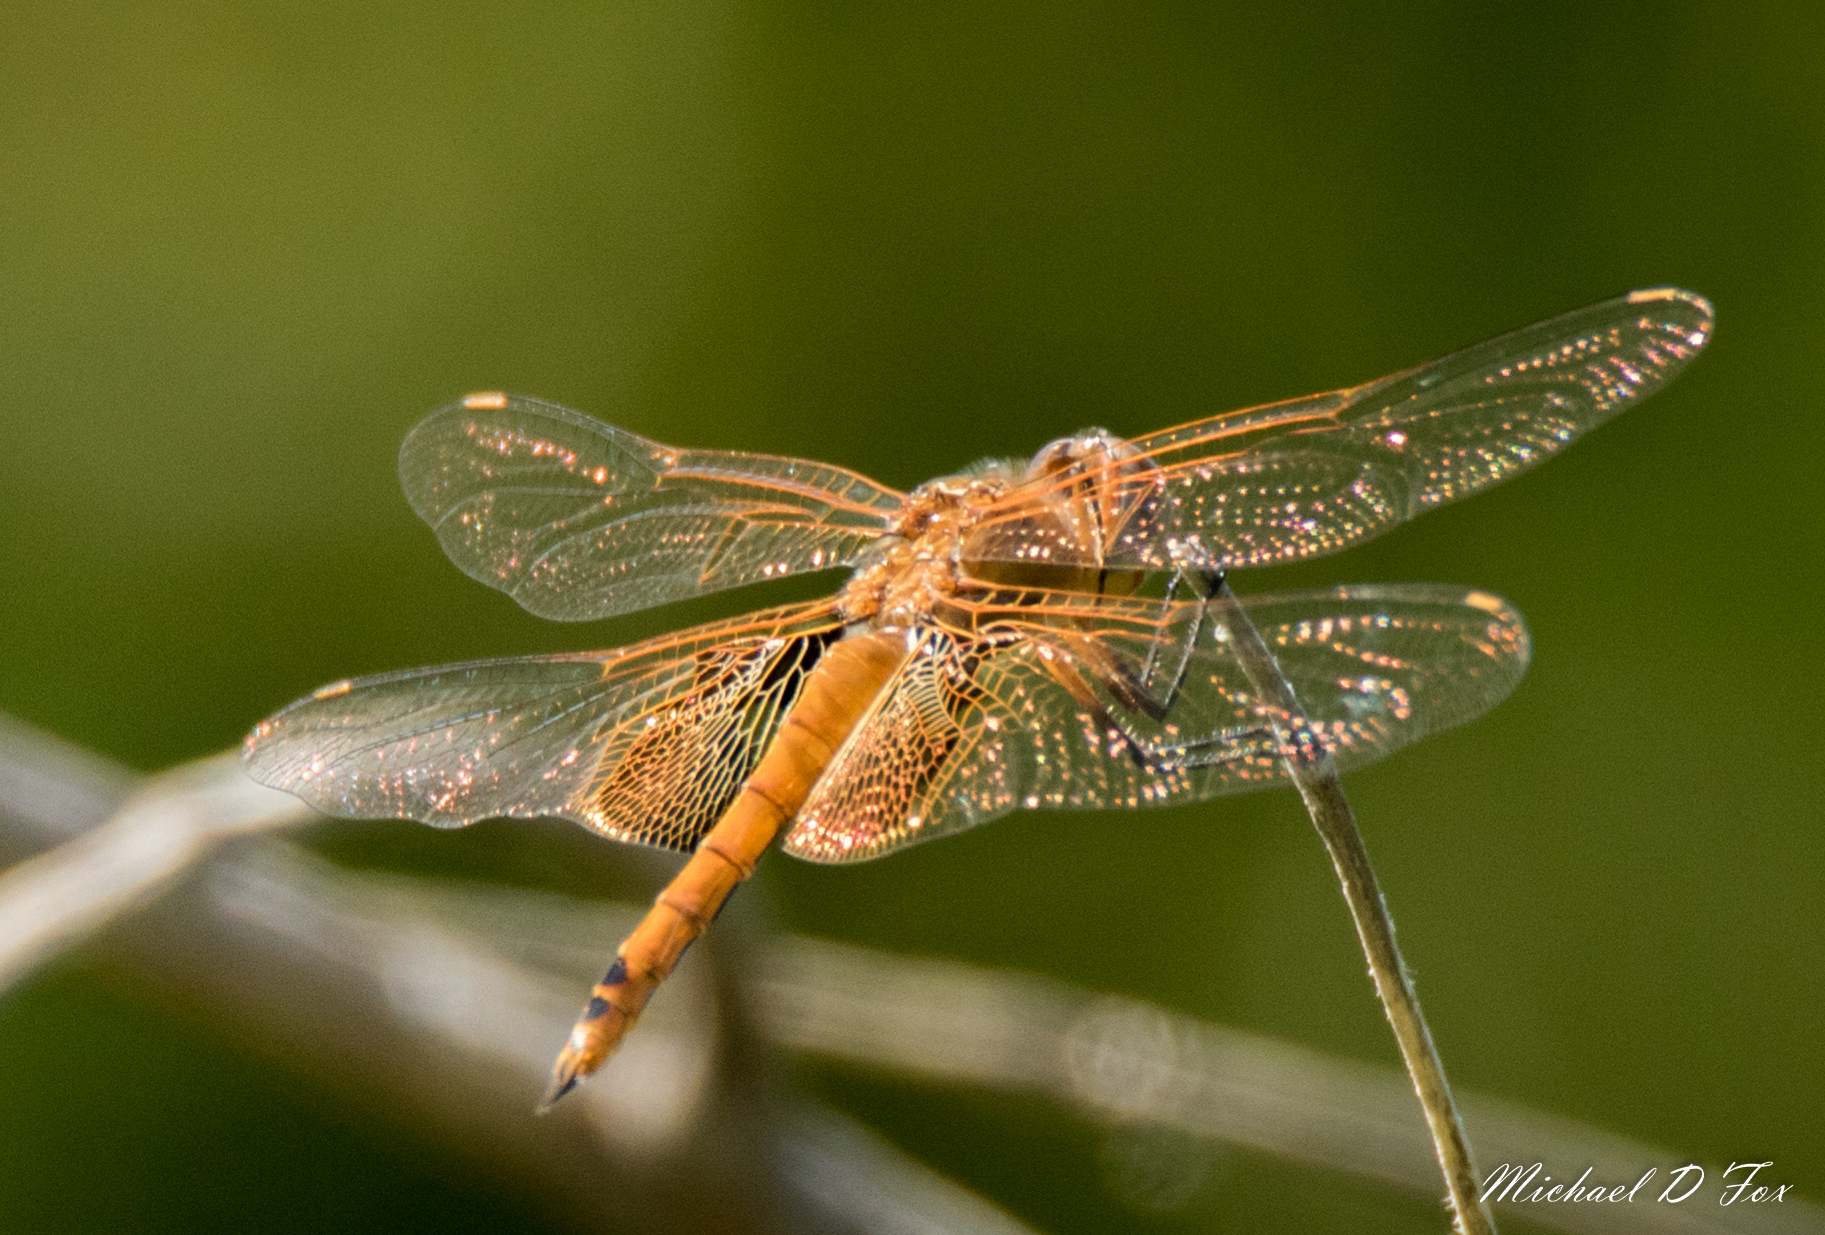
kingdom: Animalia
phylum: Arthropoda
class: Insecta
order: Odonata
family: Libellulidae
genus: Tramea
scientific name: Tramea onusta
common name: Red saddlebags
